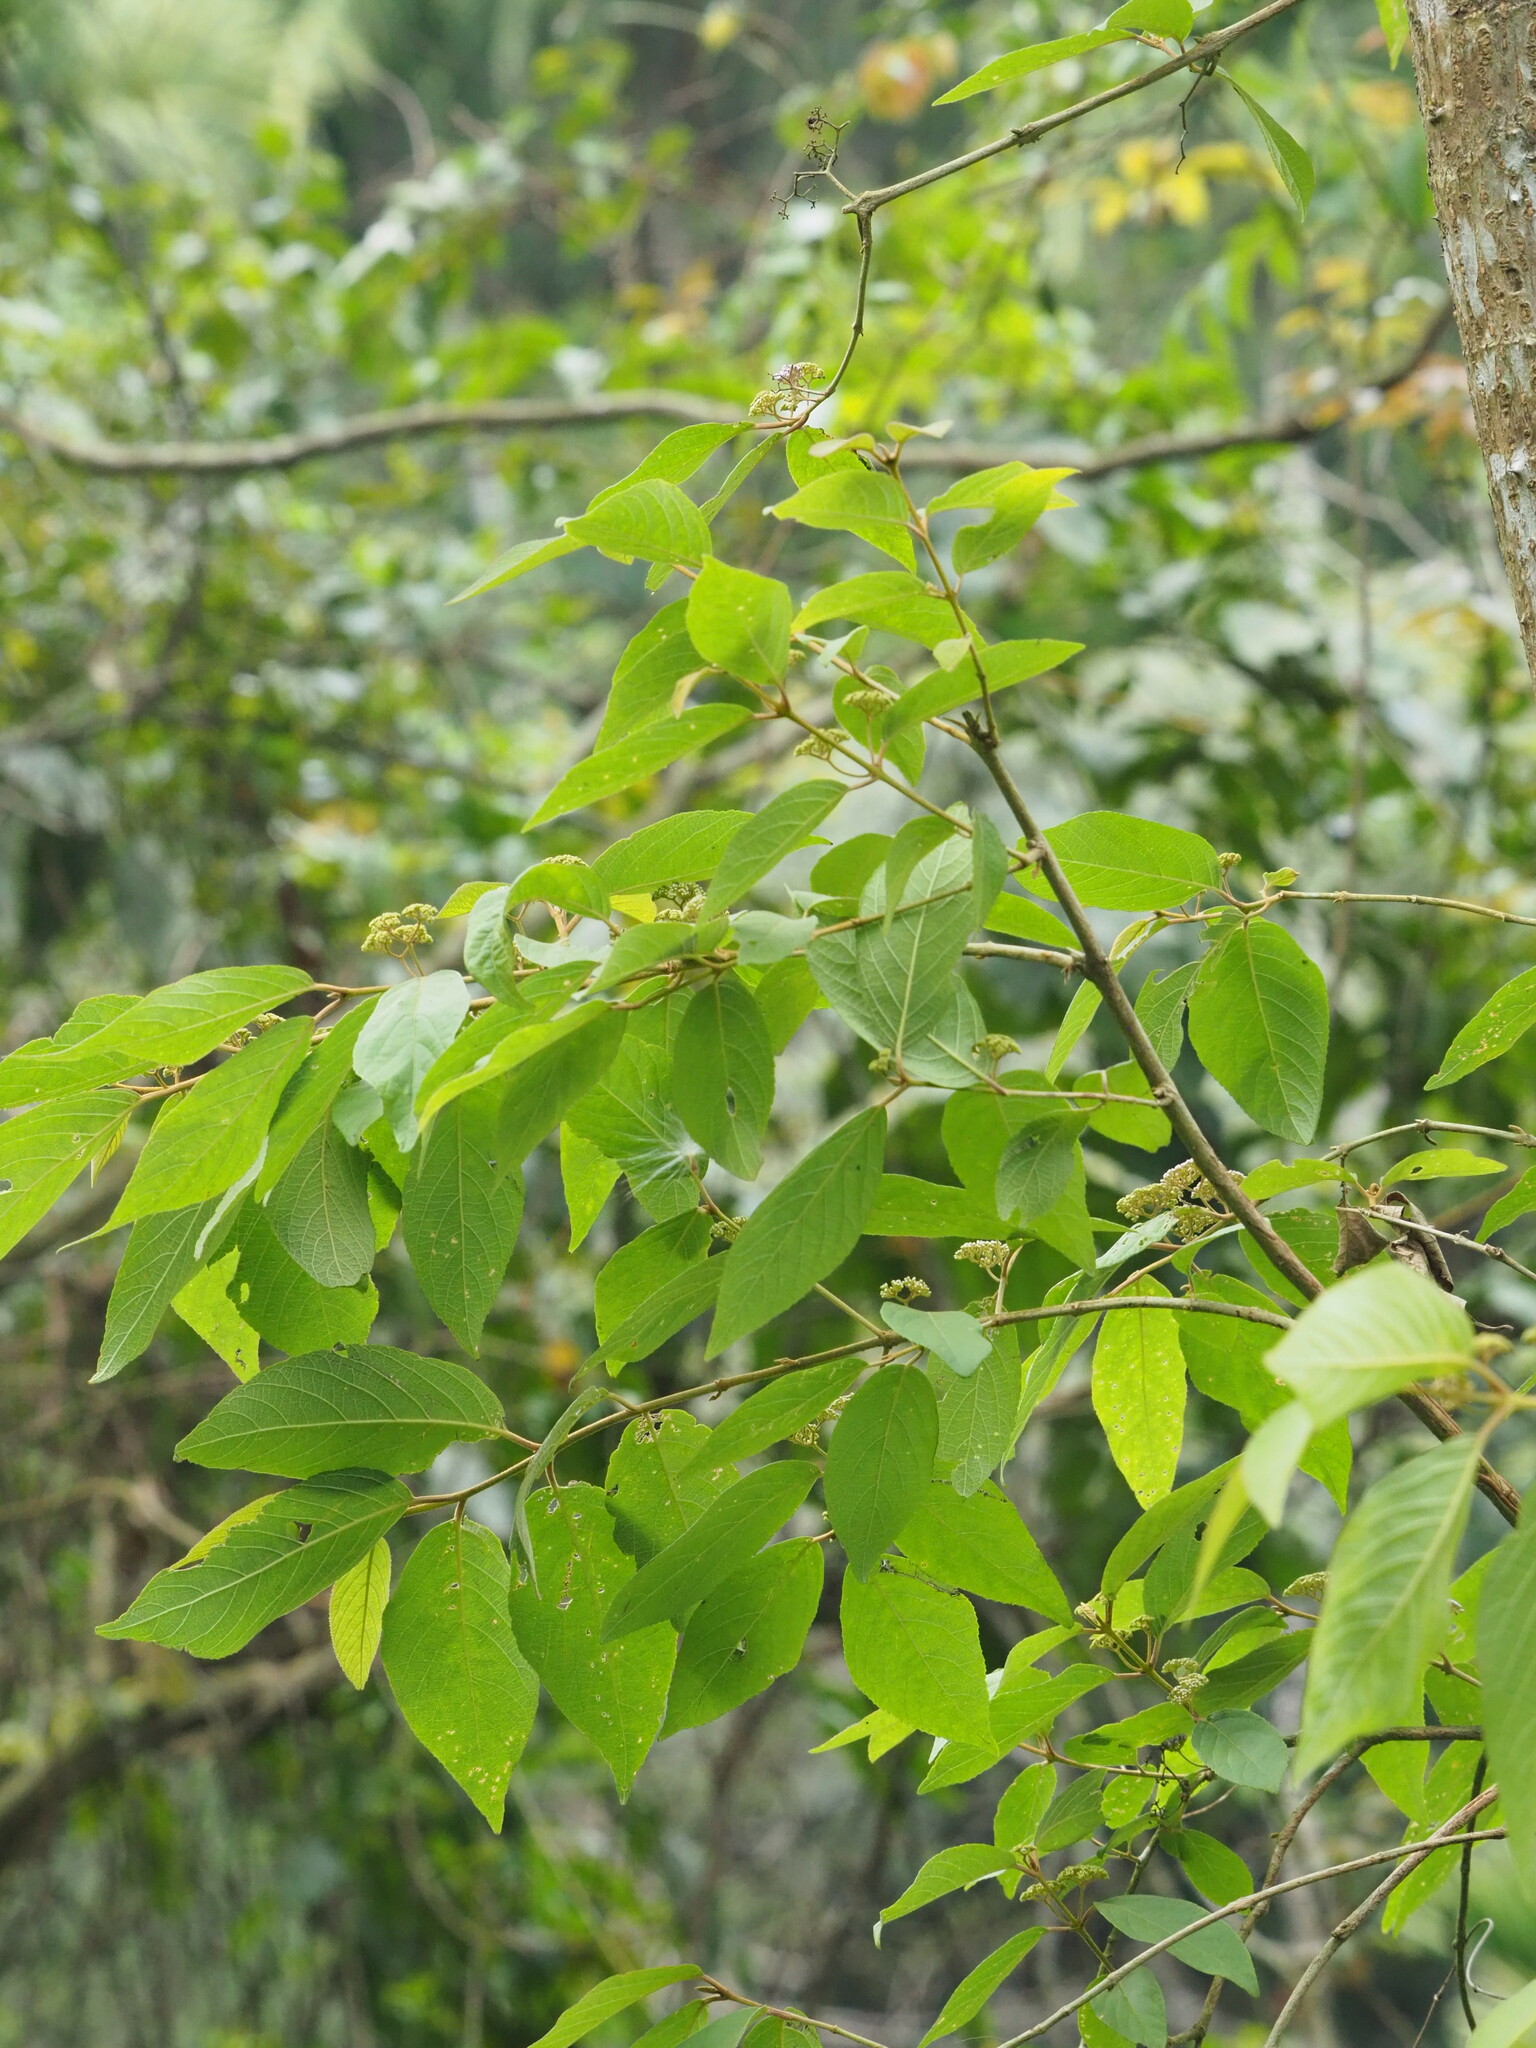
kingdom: Plantae
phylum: Tracheophyta
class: Magnoliopsida
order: Lamiales
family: Lamiaceae
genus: Callicarpa
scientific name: Callicarpa pedunculata
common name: Velvetleaf
